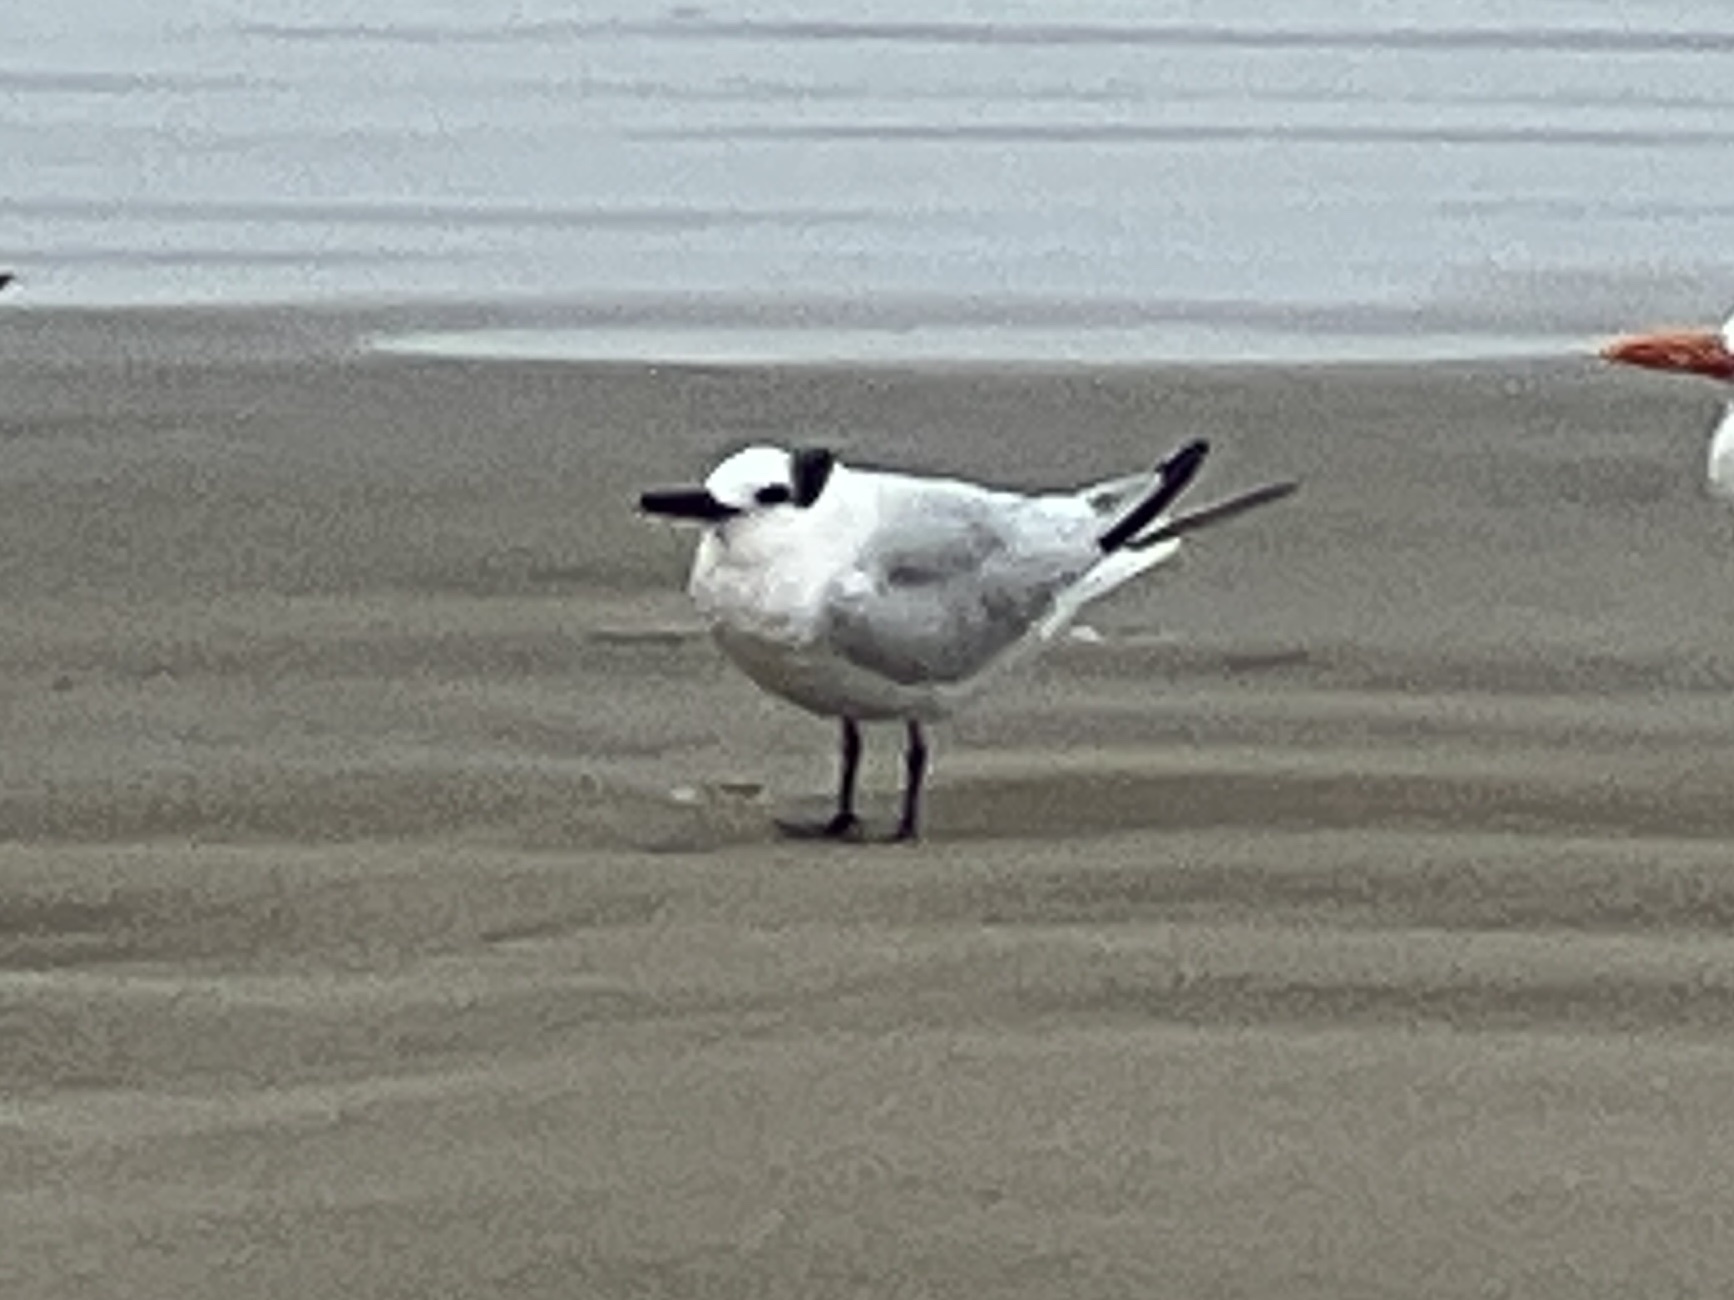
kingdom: Animalia
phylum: Chordata
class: Aves
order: Charadriiformes
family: Laridae
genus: Thalasseus
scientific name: Thalasseus sandvicensis
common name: Sandwich tern
